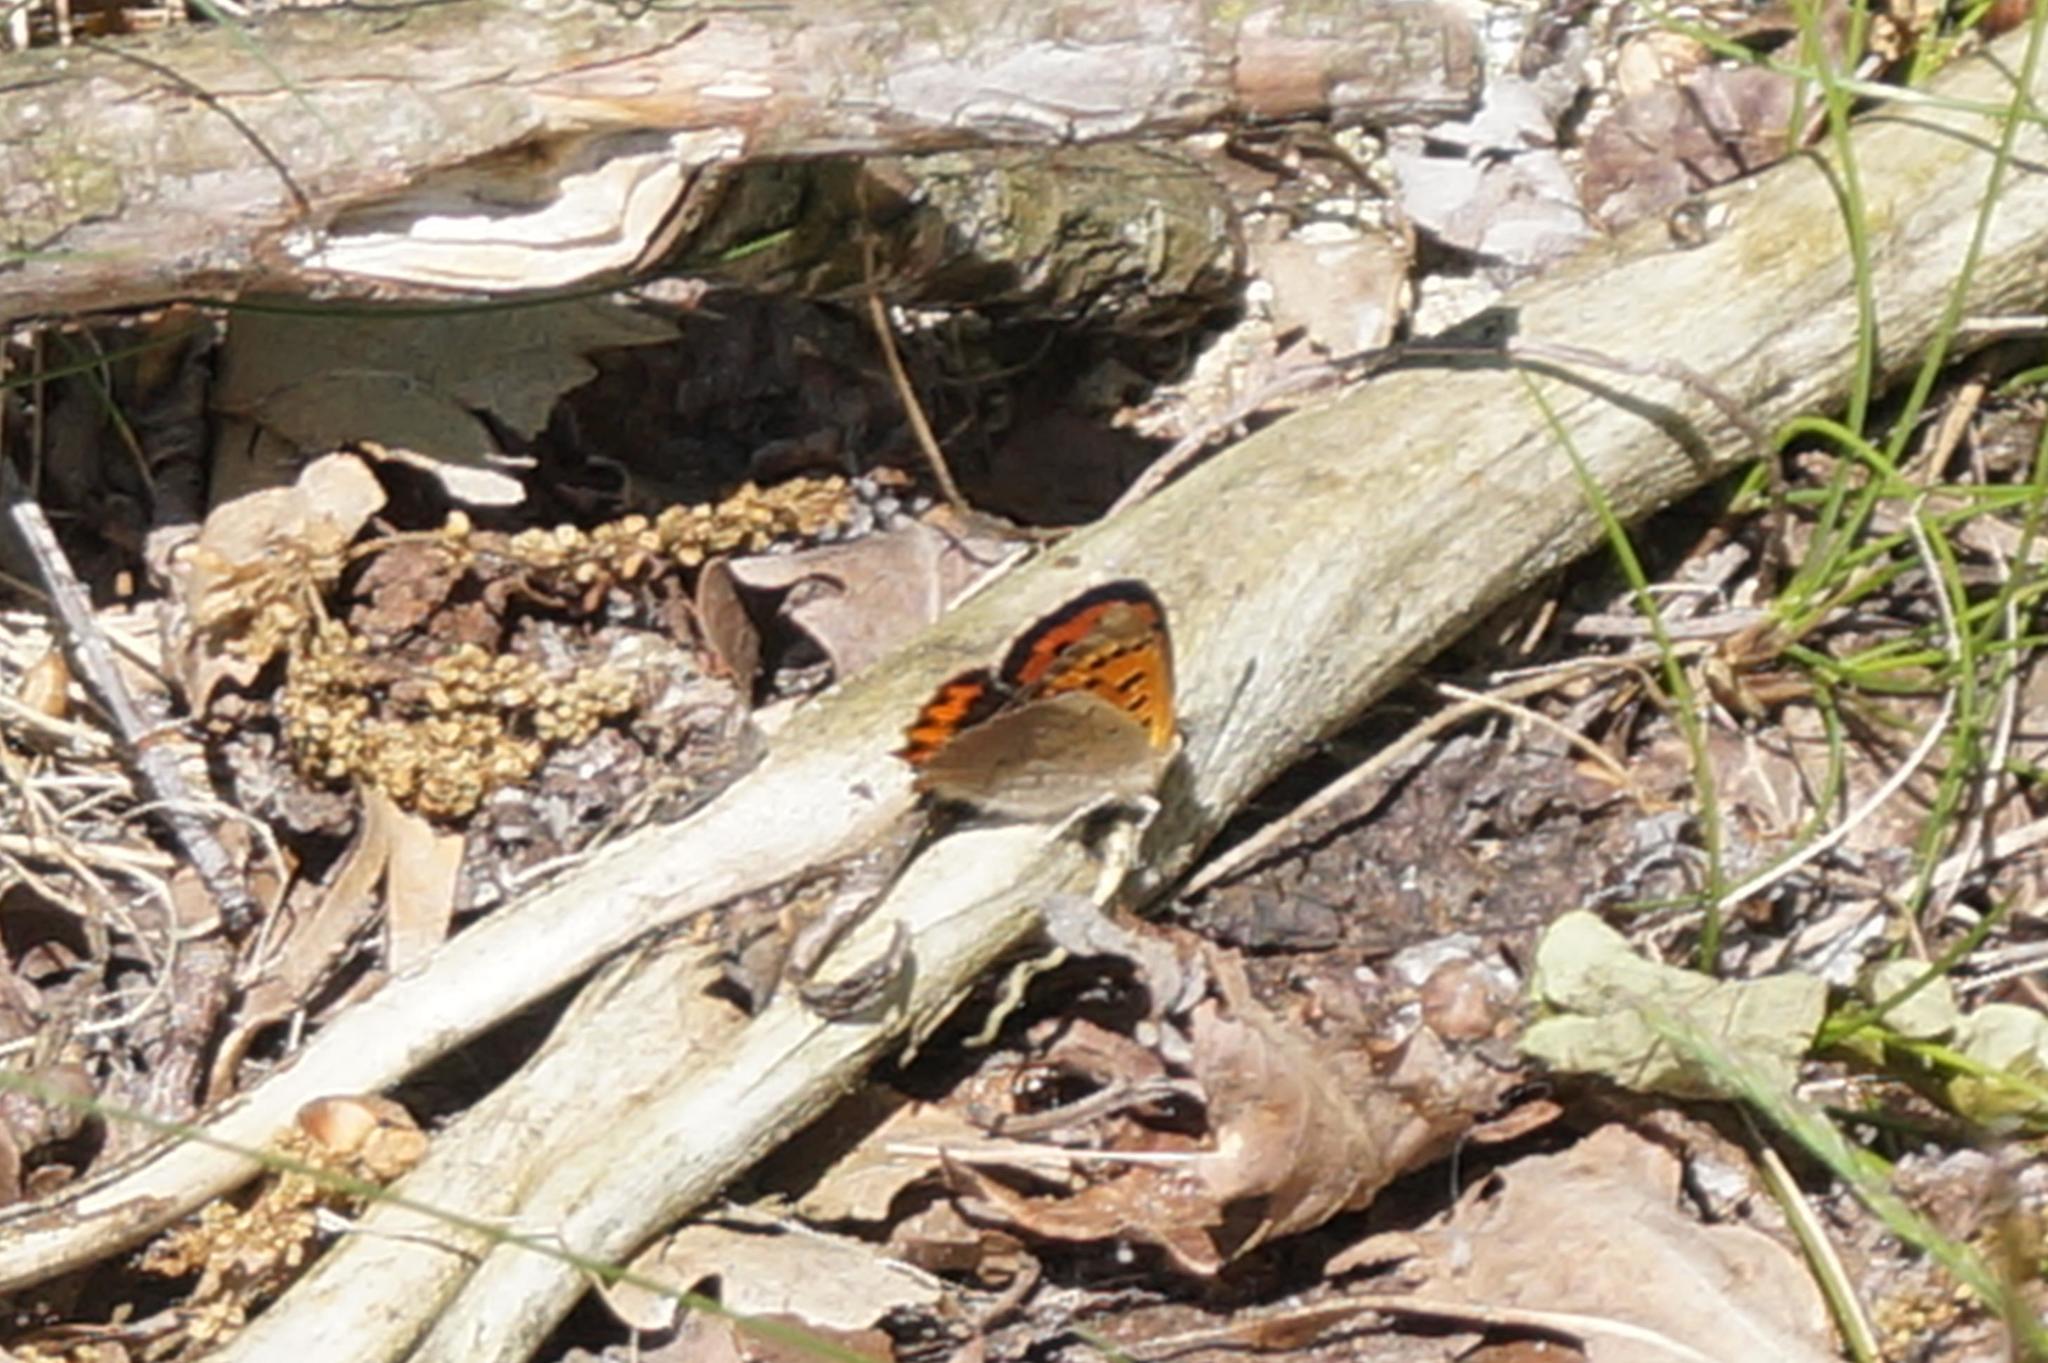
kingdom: Animalia
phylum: Arthropoda
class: Insecta
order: Lepidoptera
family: Lycaenidae
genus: Lycaena
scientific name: Lycaena phlaeas
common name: Small copper
